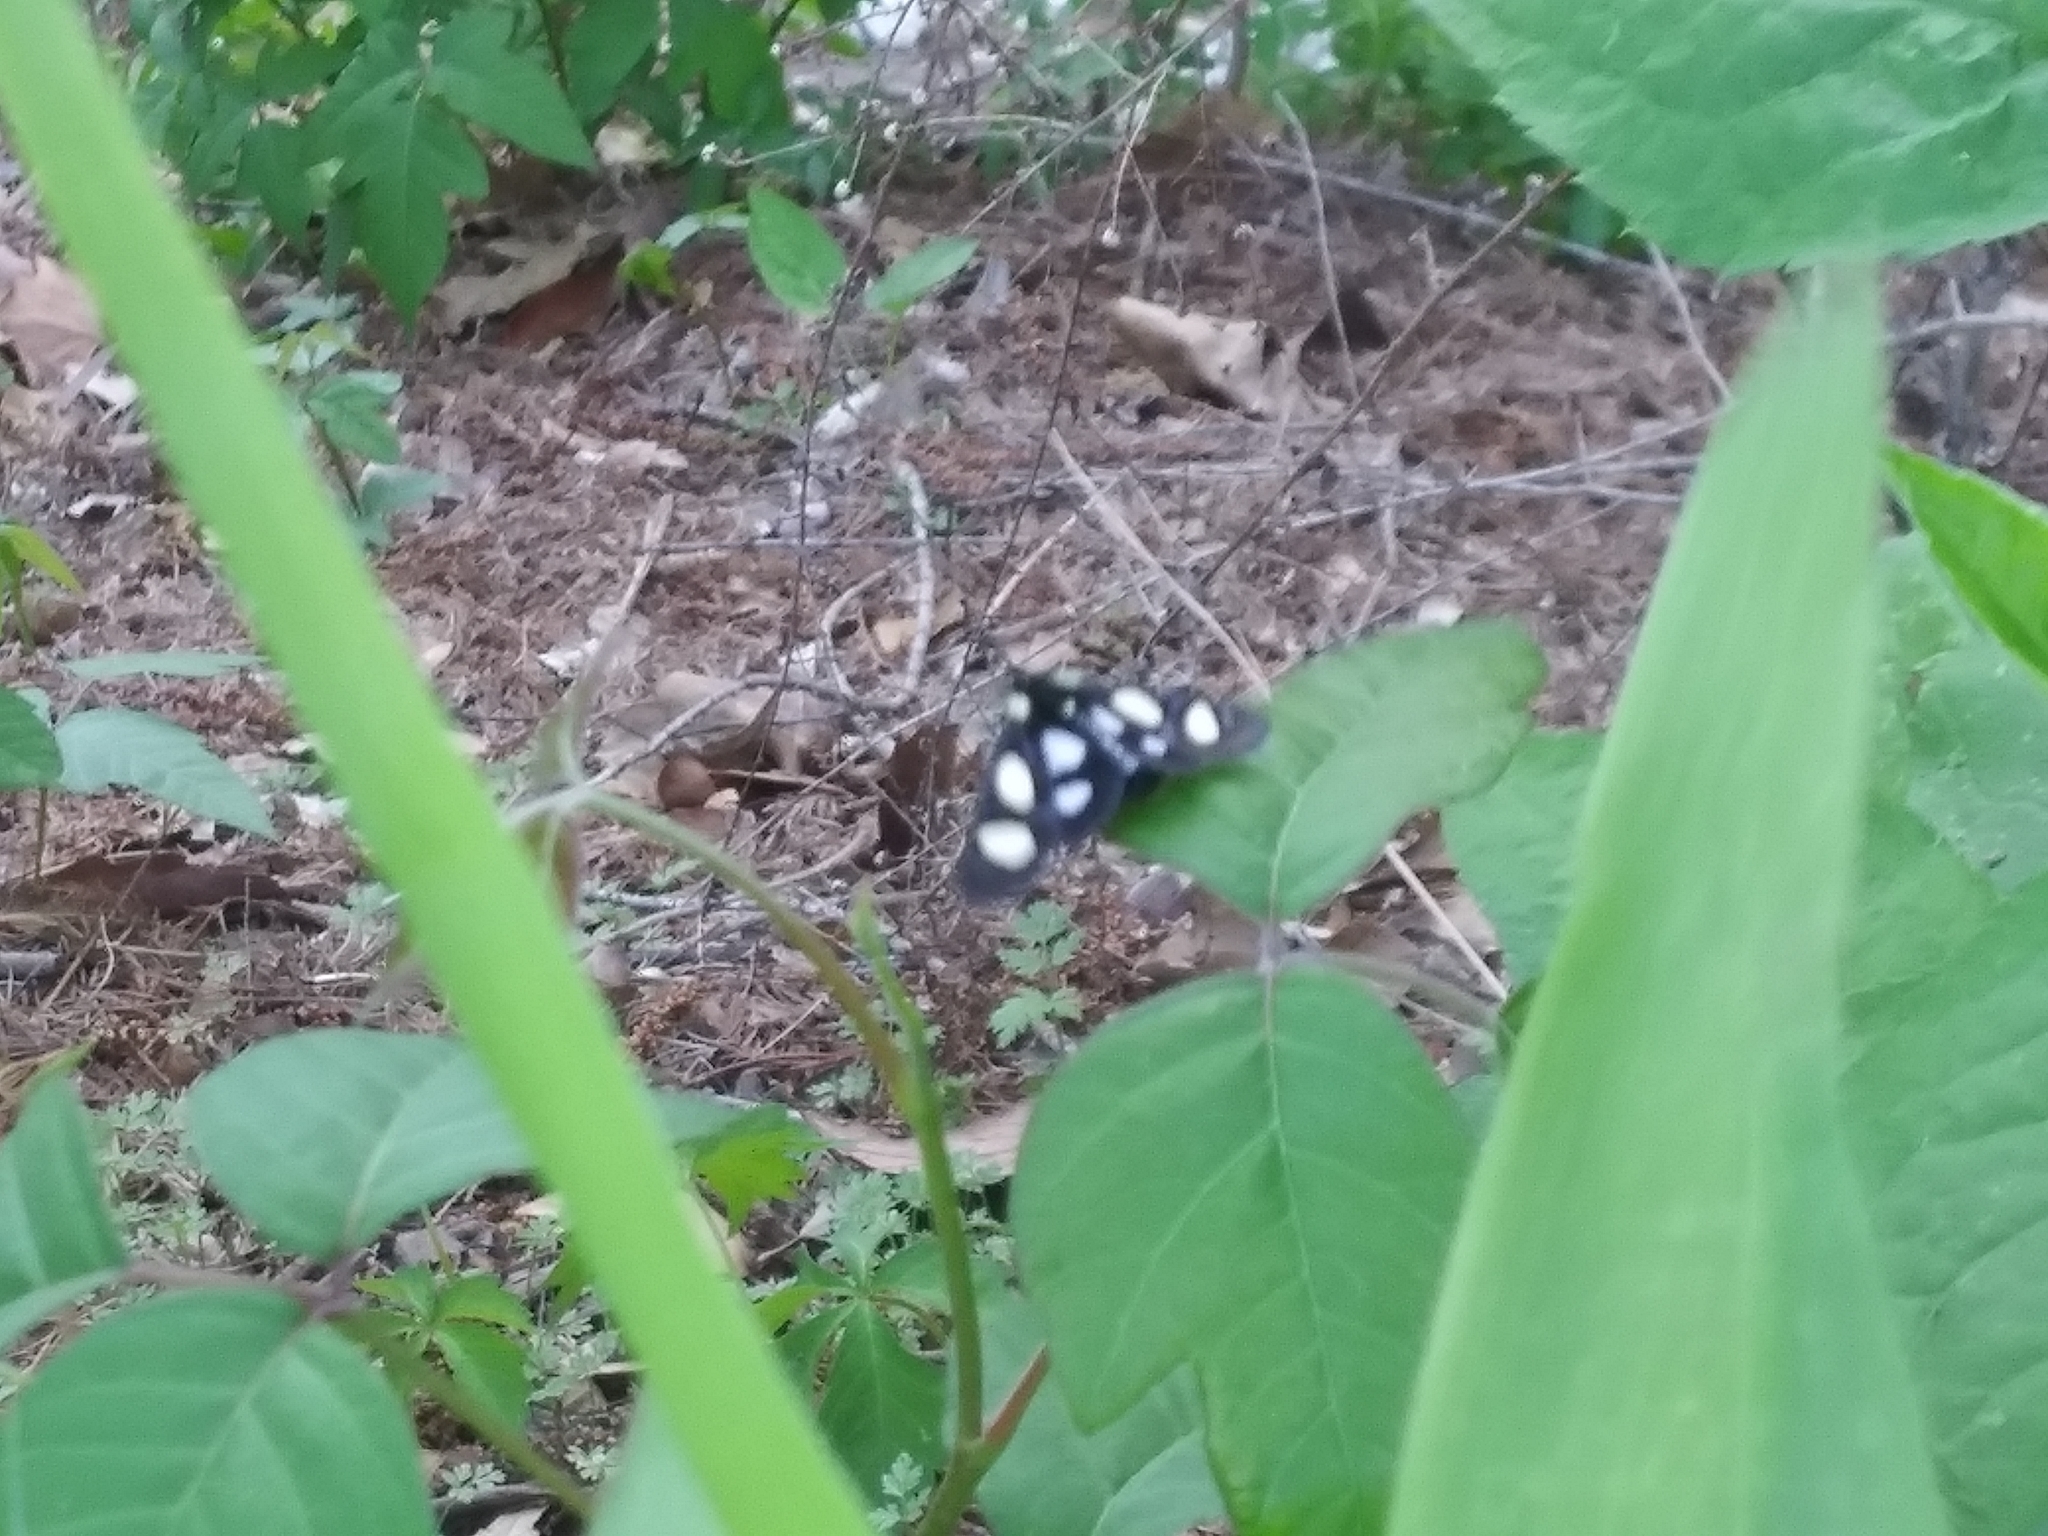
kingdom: Animalia
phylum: Arthropoda
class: Insecta
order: Lepidoptera
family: Noctuidae
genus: Alypia
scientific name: Alypia octomaculata
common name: Eight-spotted forester
